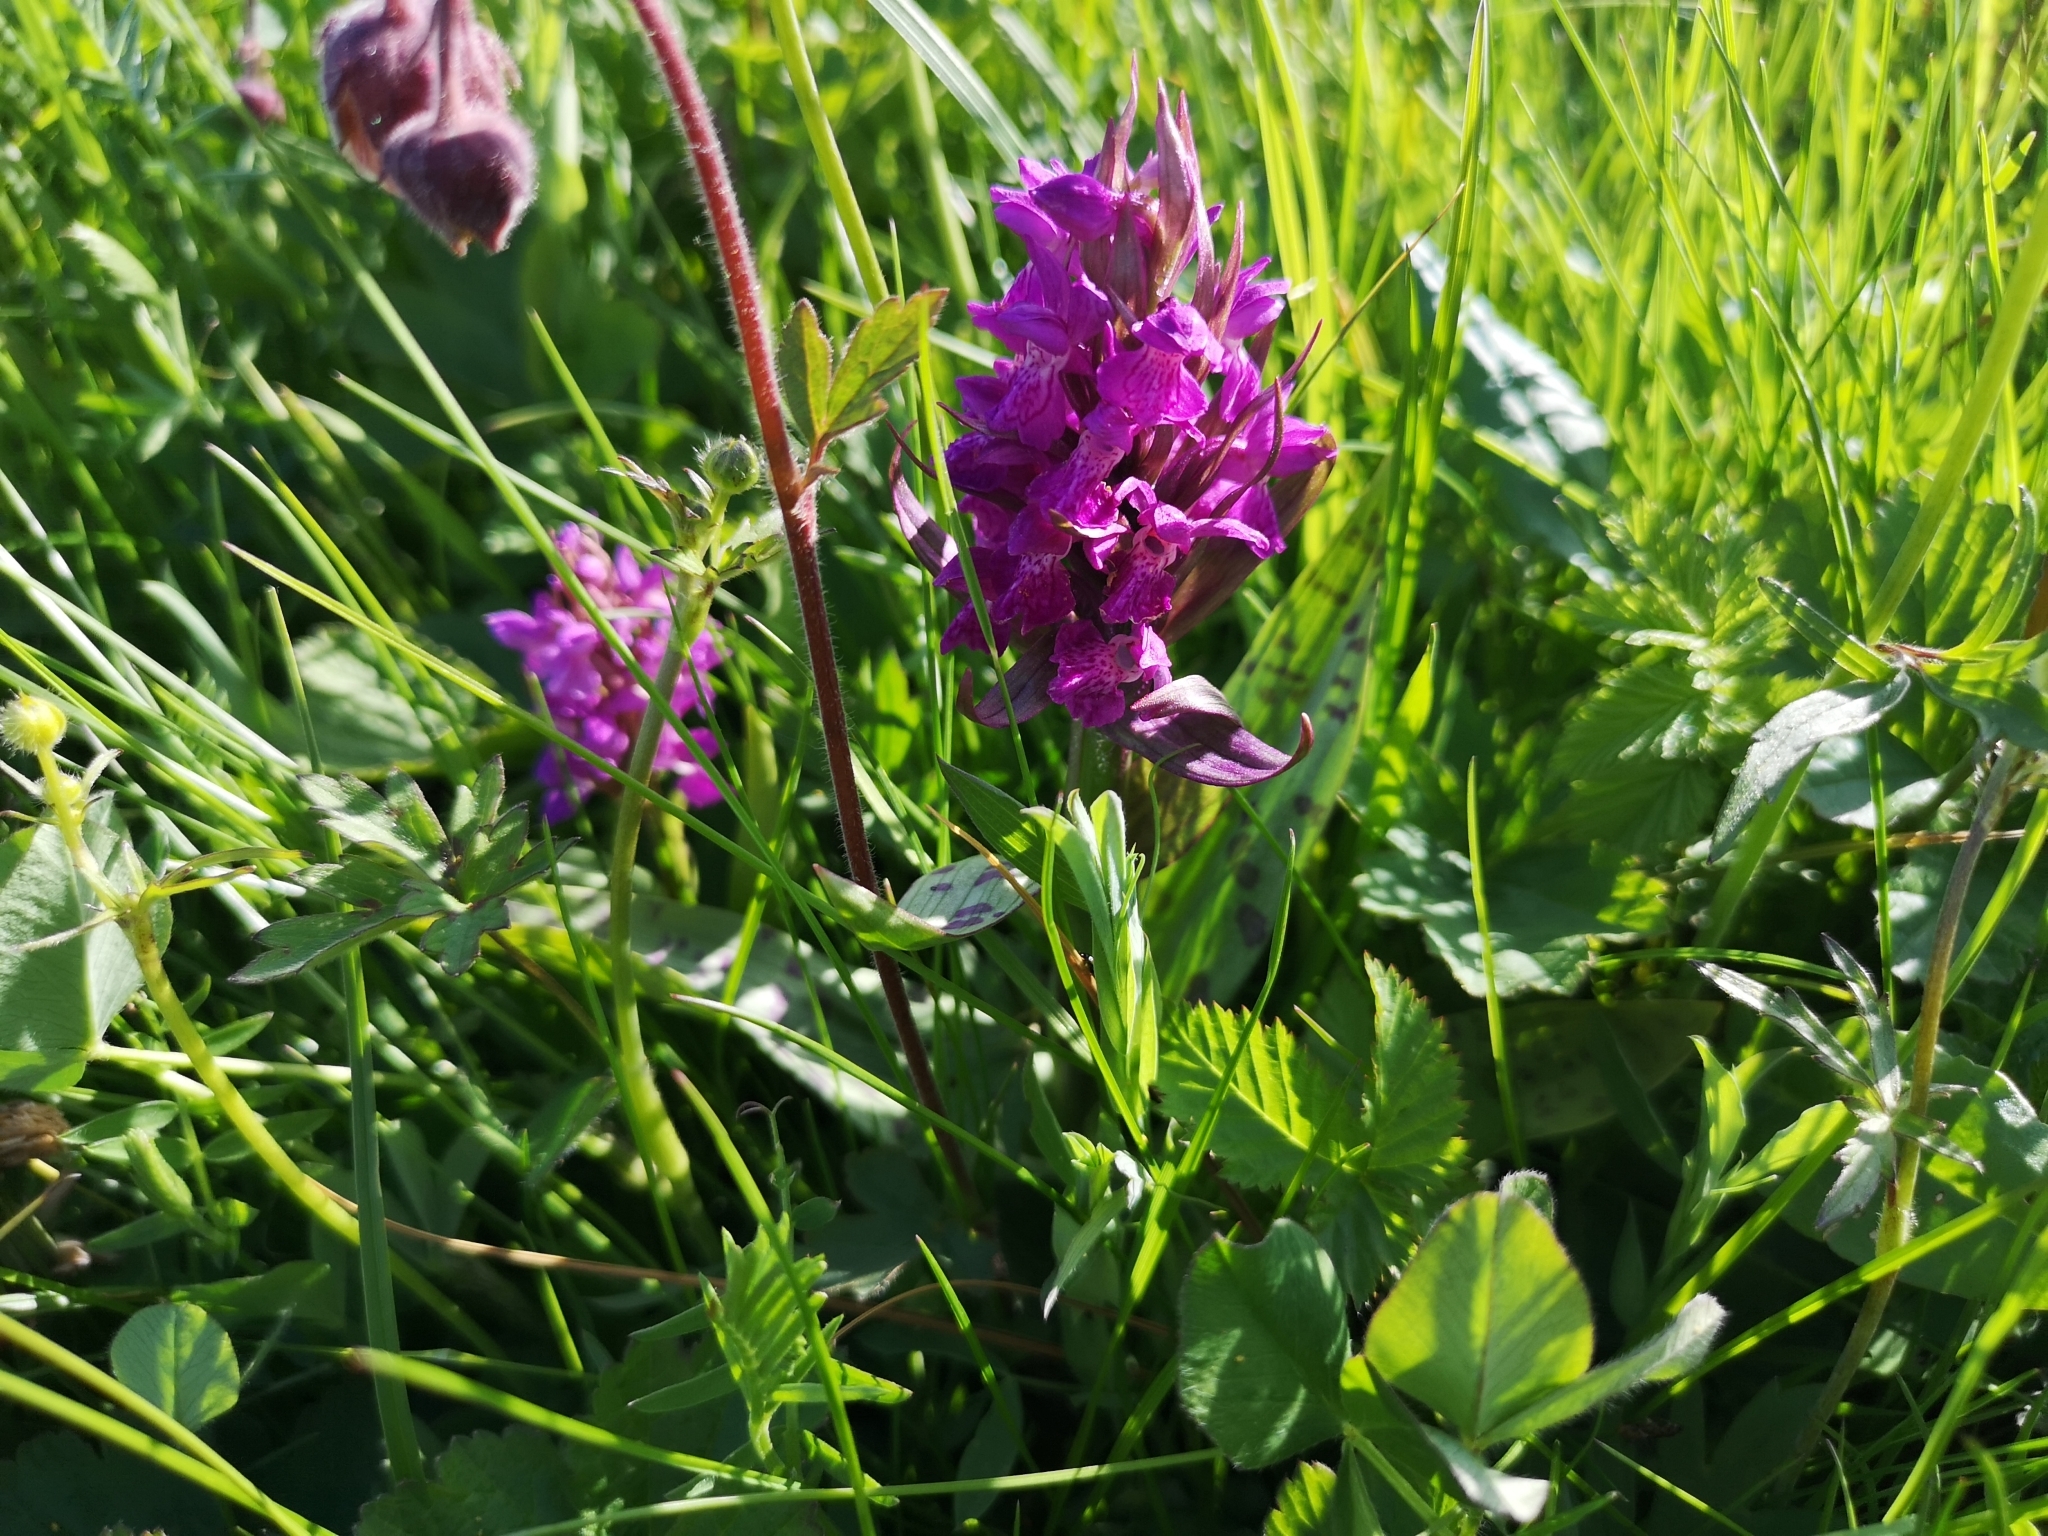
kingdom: Plantae
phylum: Tracheophyta
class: Liliopsida
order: Asparagales
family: Orchidaceae
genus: Dactylorhiza
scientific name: Dactylorhiza majalis
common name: Marsh orchid
